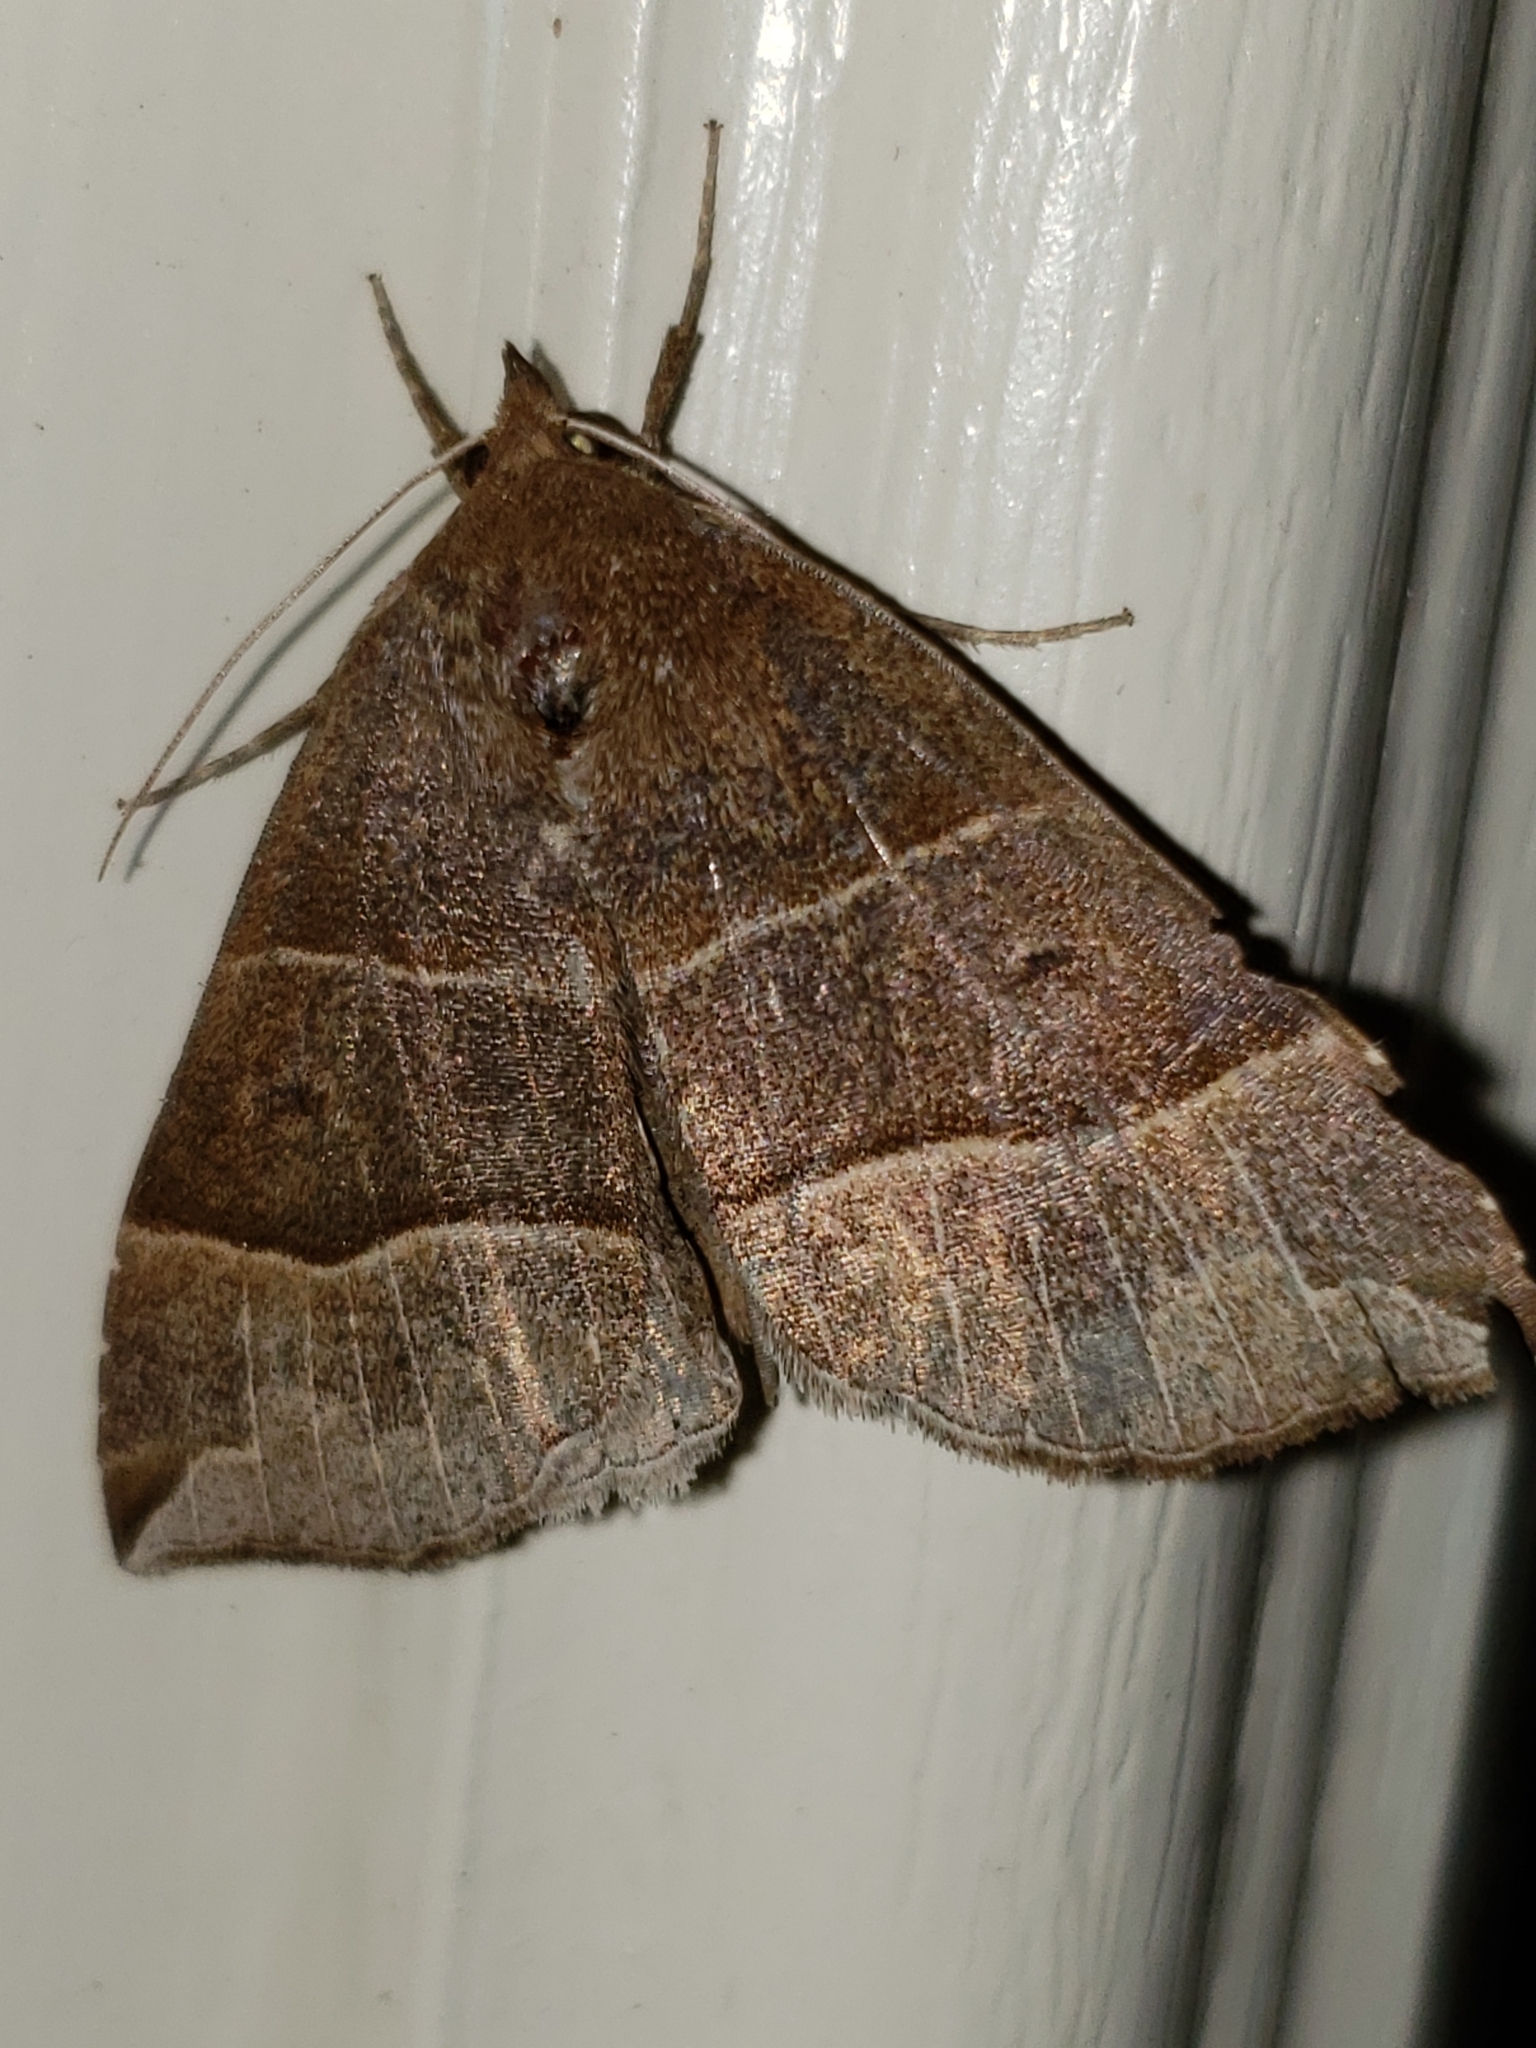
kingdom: Animalia
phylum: Arthropoda
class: Insecta
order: Lepidoptera
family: Erebidae
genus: Parallelia
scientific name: Parallelia bistriaris
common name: Maple looper moth
